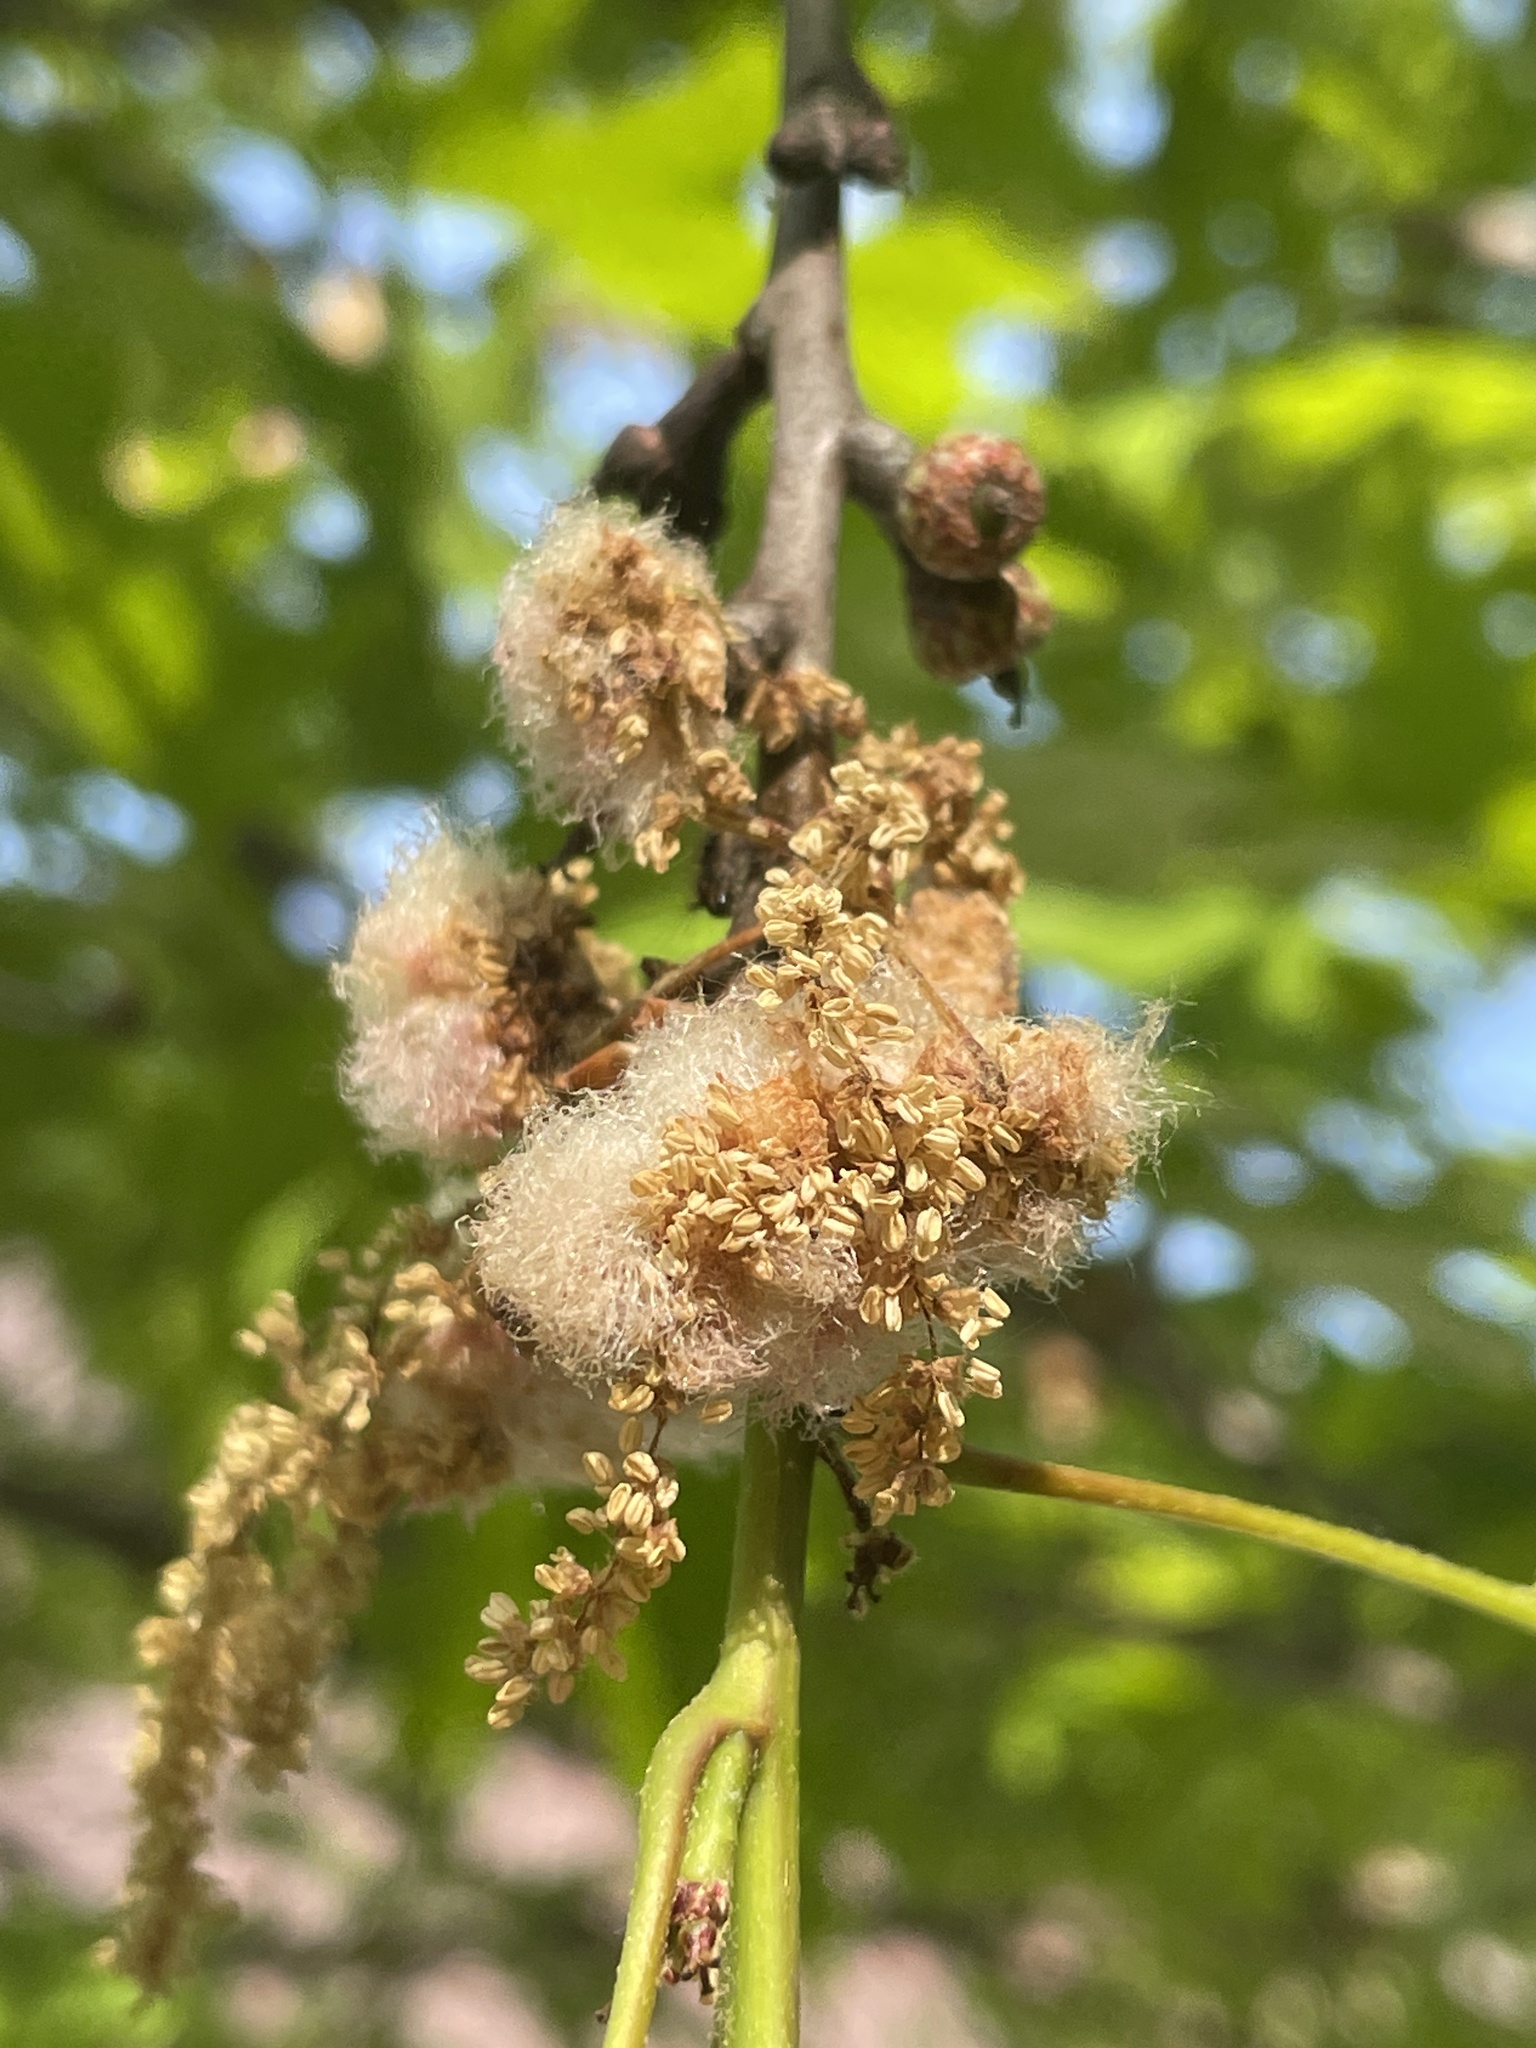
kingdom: Animalia
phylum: Arthropoda
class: Insecta
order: Hymenoptera
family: Cynipidae
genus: Callirhytis
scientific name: Callirhytis
